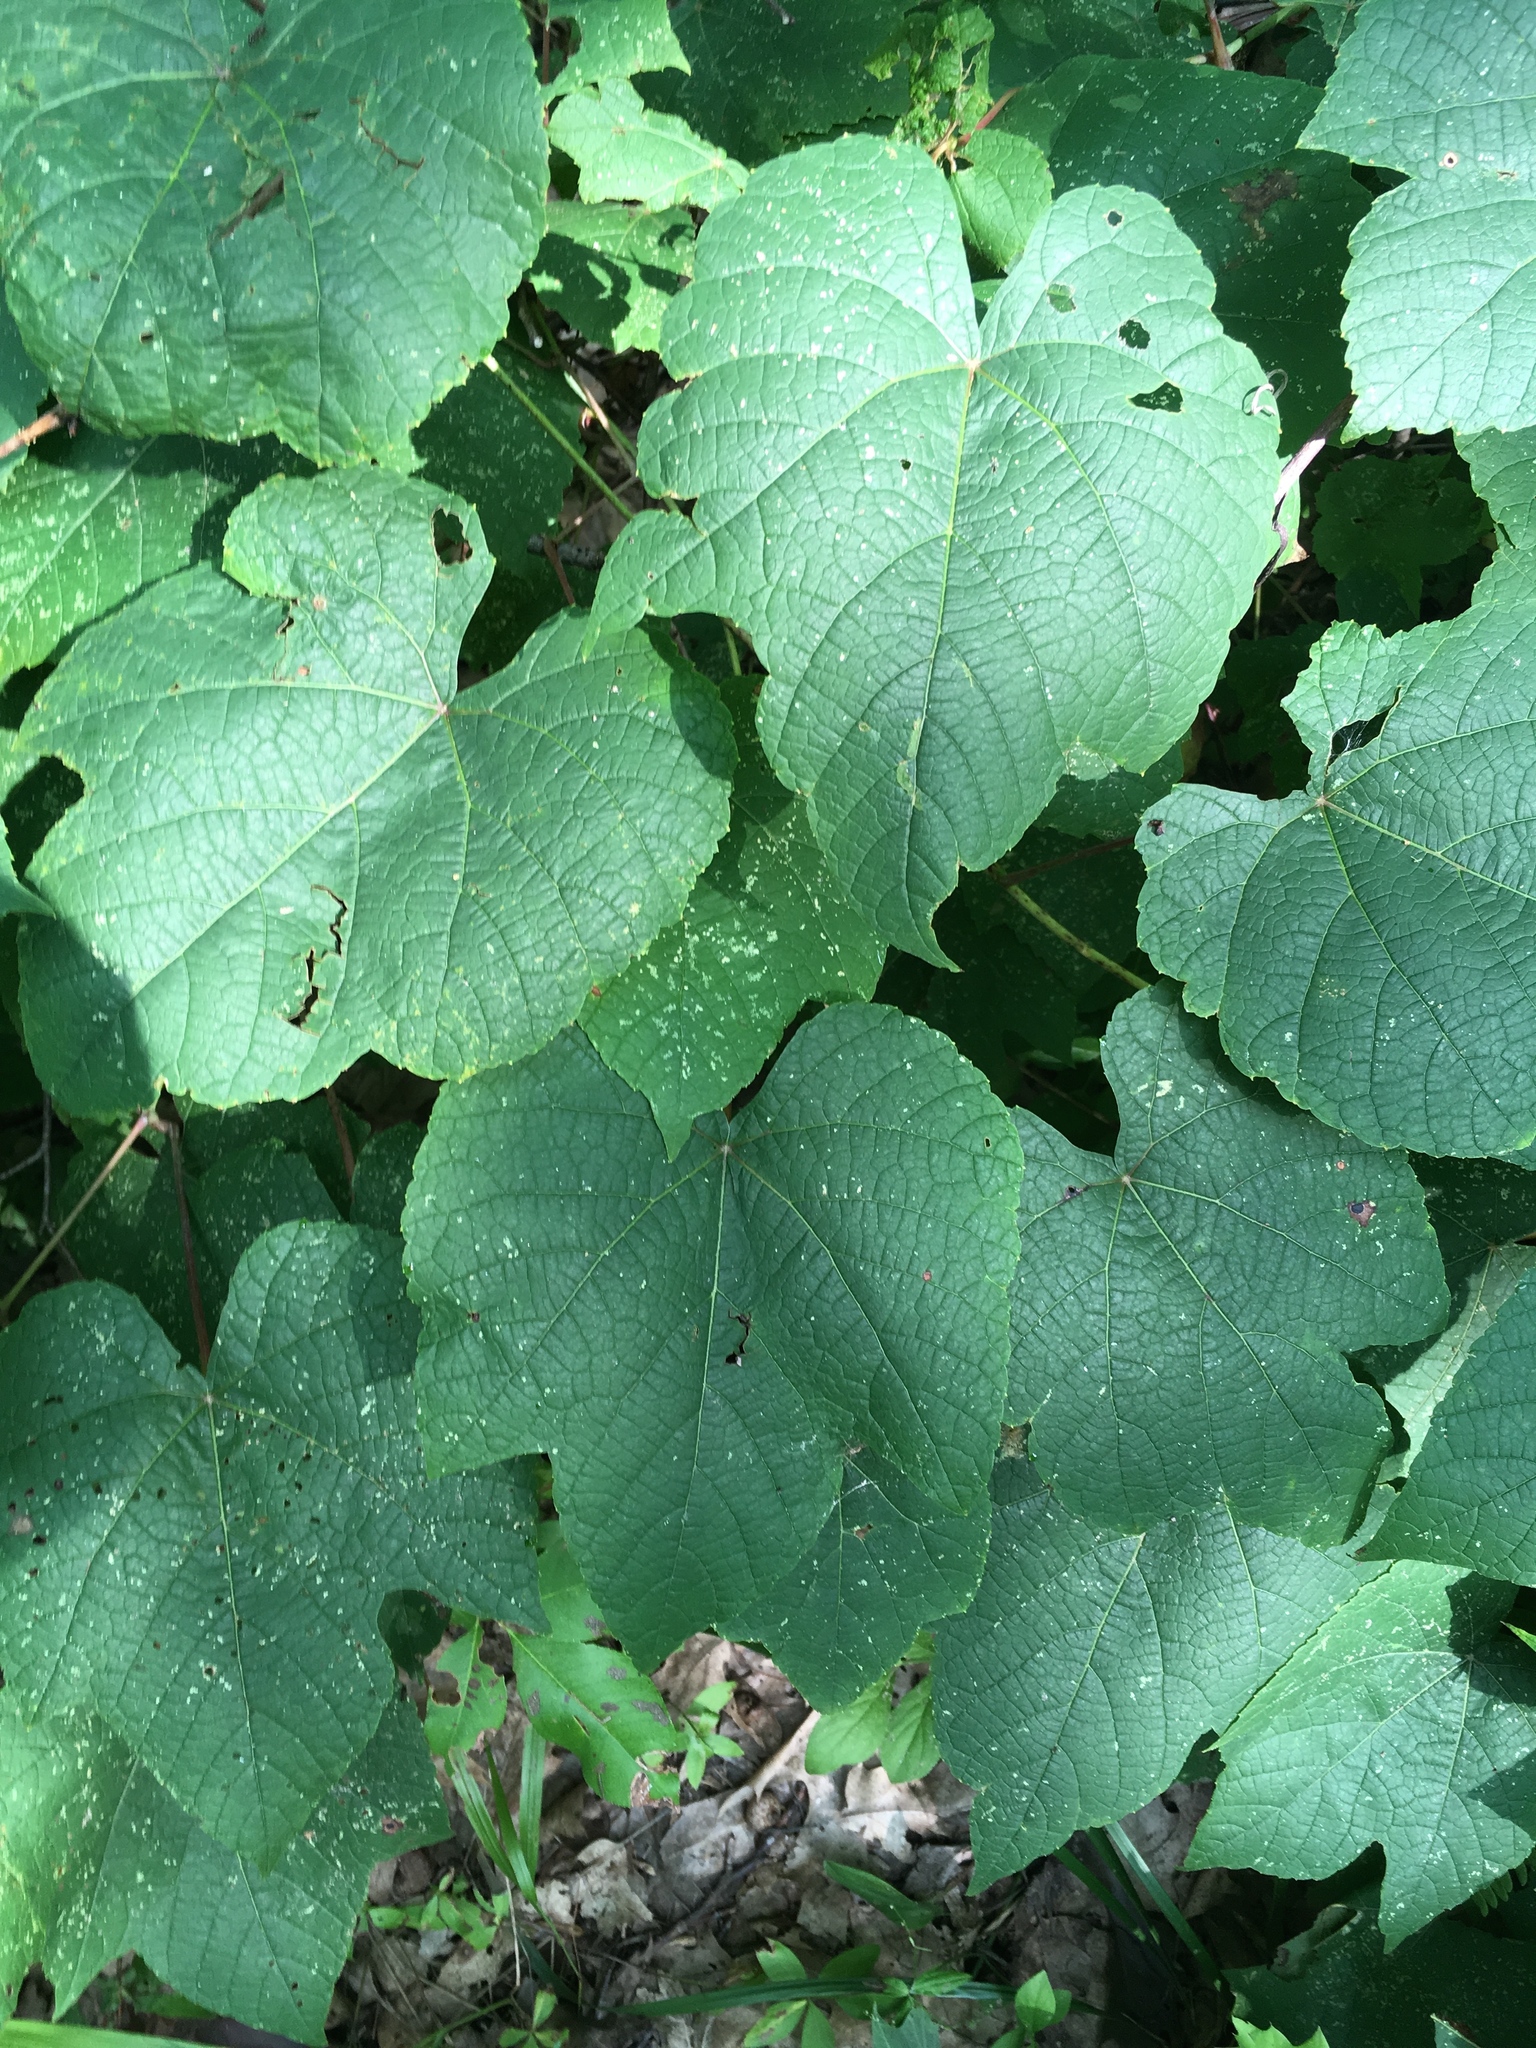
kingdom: Plantae
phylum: Tracheophyta
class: Magnoliopsida
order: Vitales
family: Vitaceae
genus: Vitis
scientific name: Vitis aestivalis
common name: Pigeon grape
